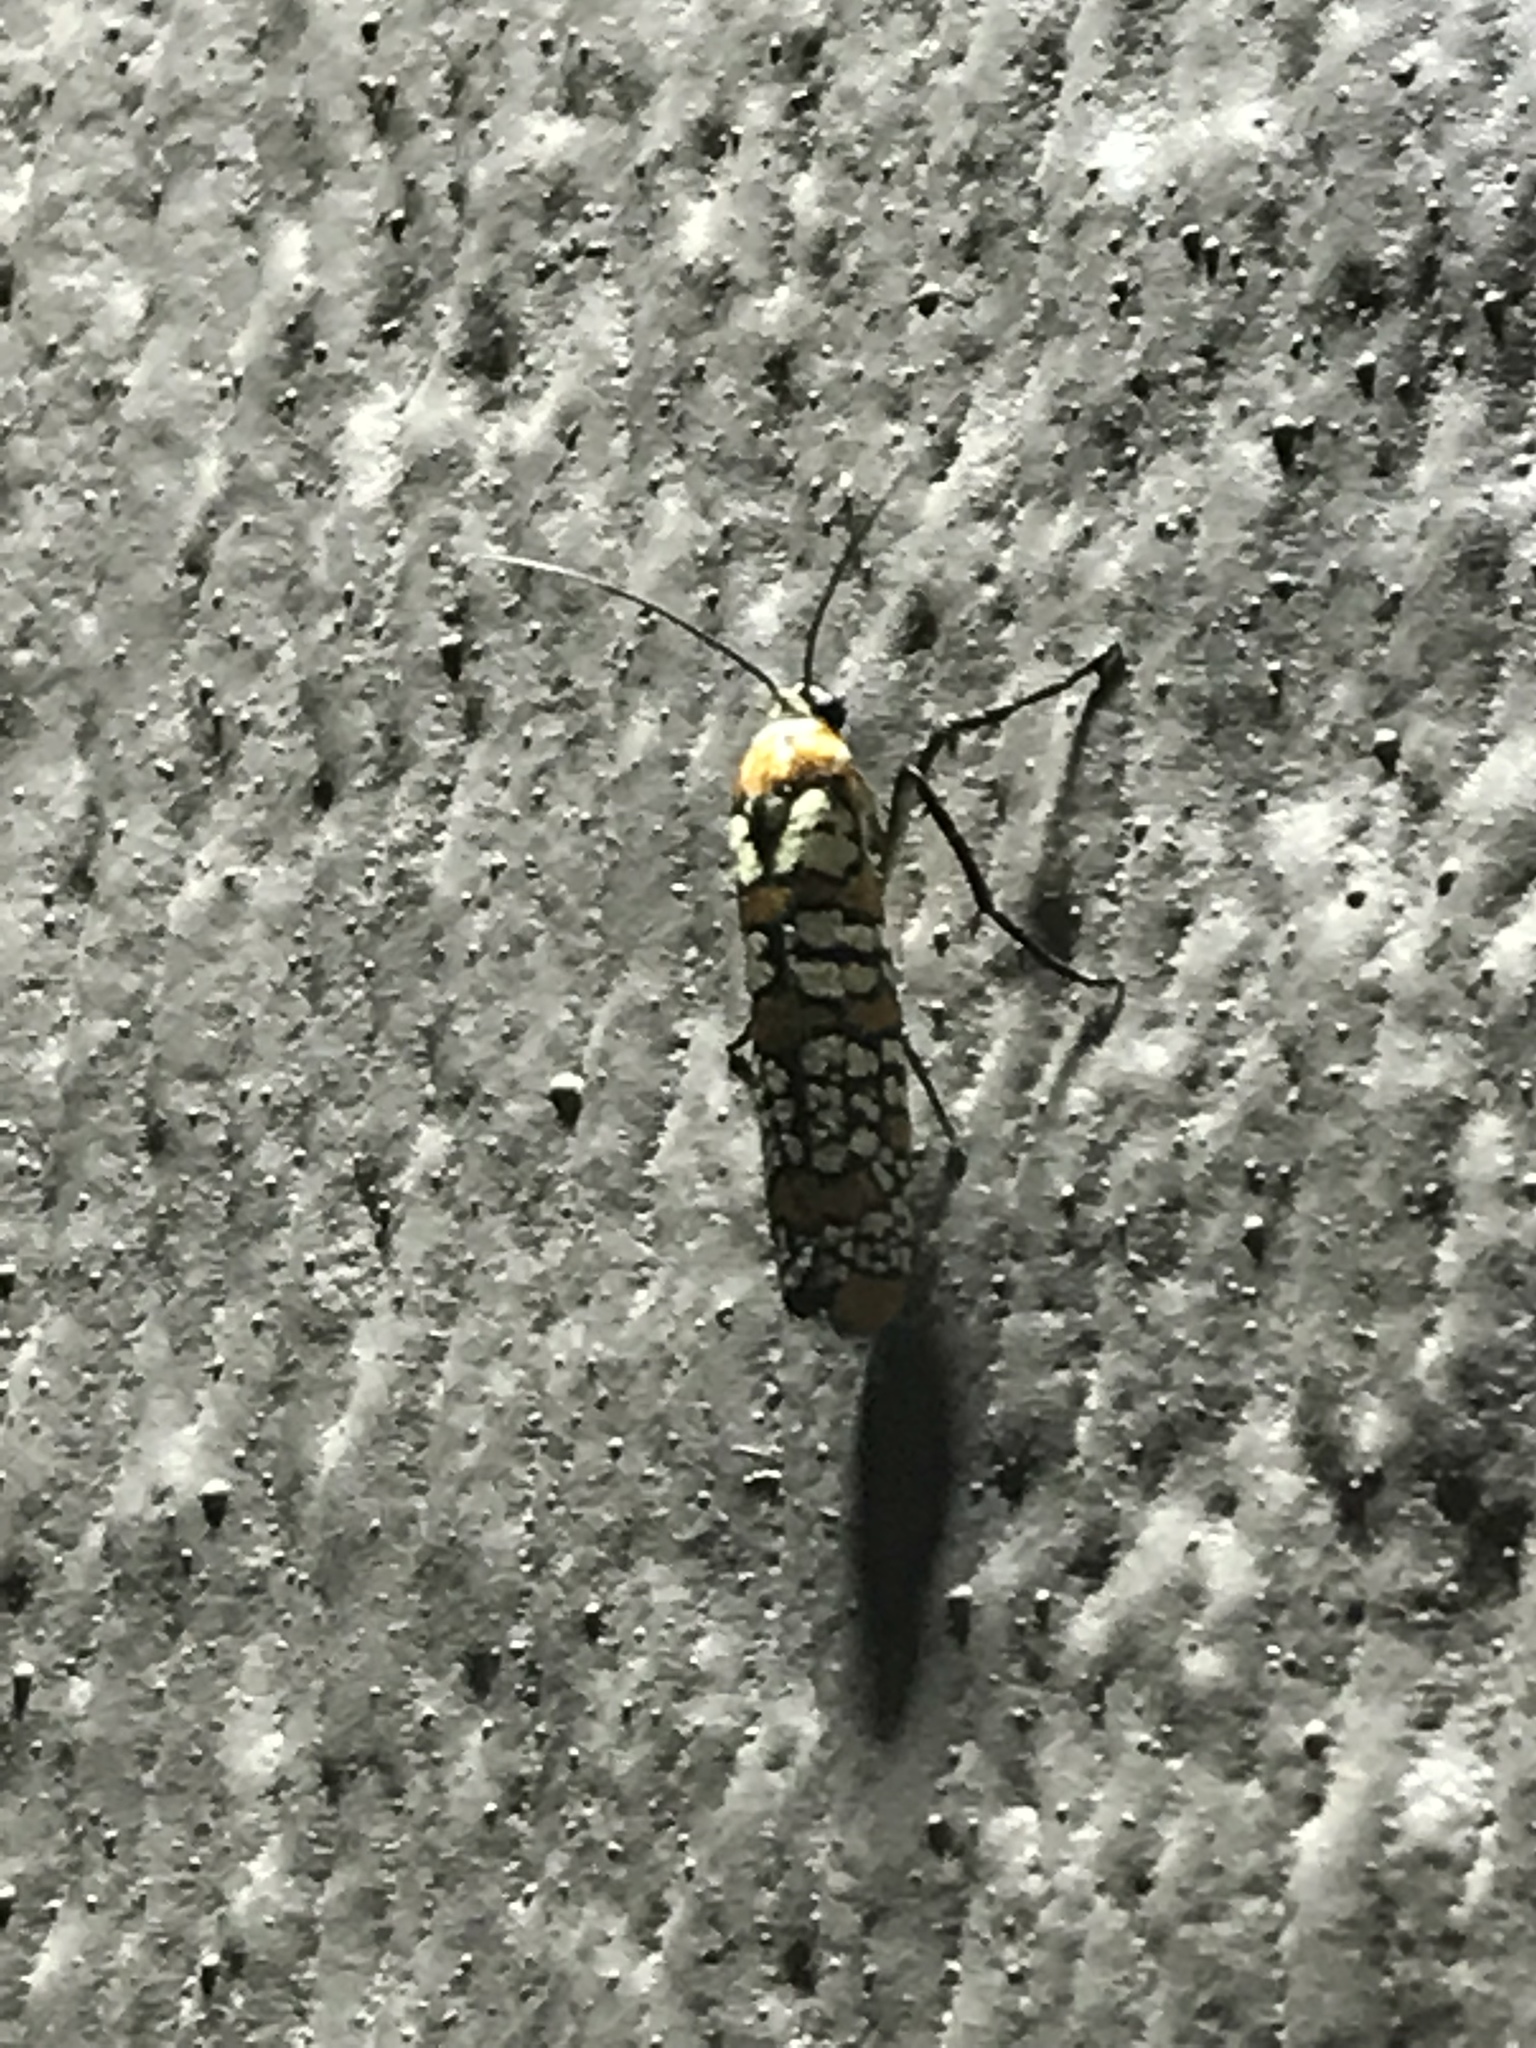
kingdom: Animalia
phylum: Arthropoda
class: Insecta
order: Lepidoptera
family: Attevidae
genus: Atteva
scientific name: Atteva punctella
